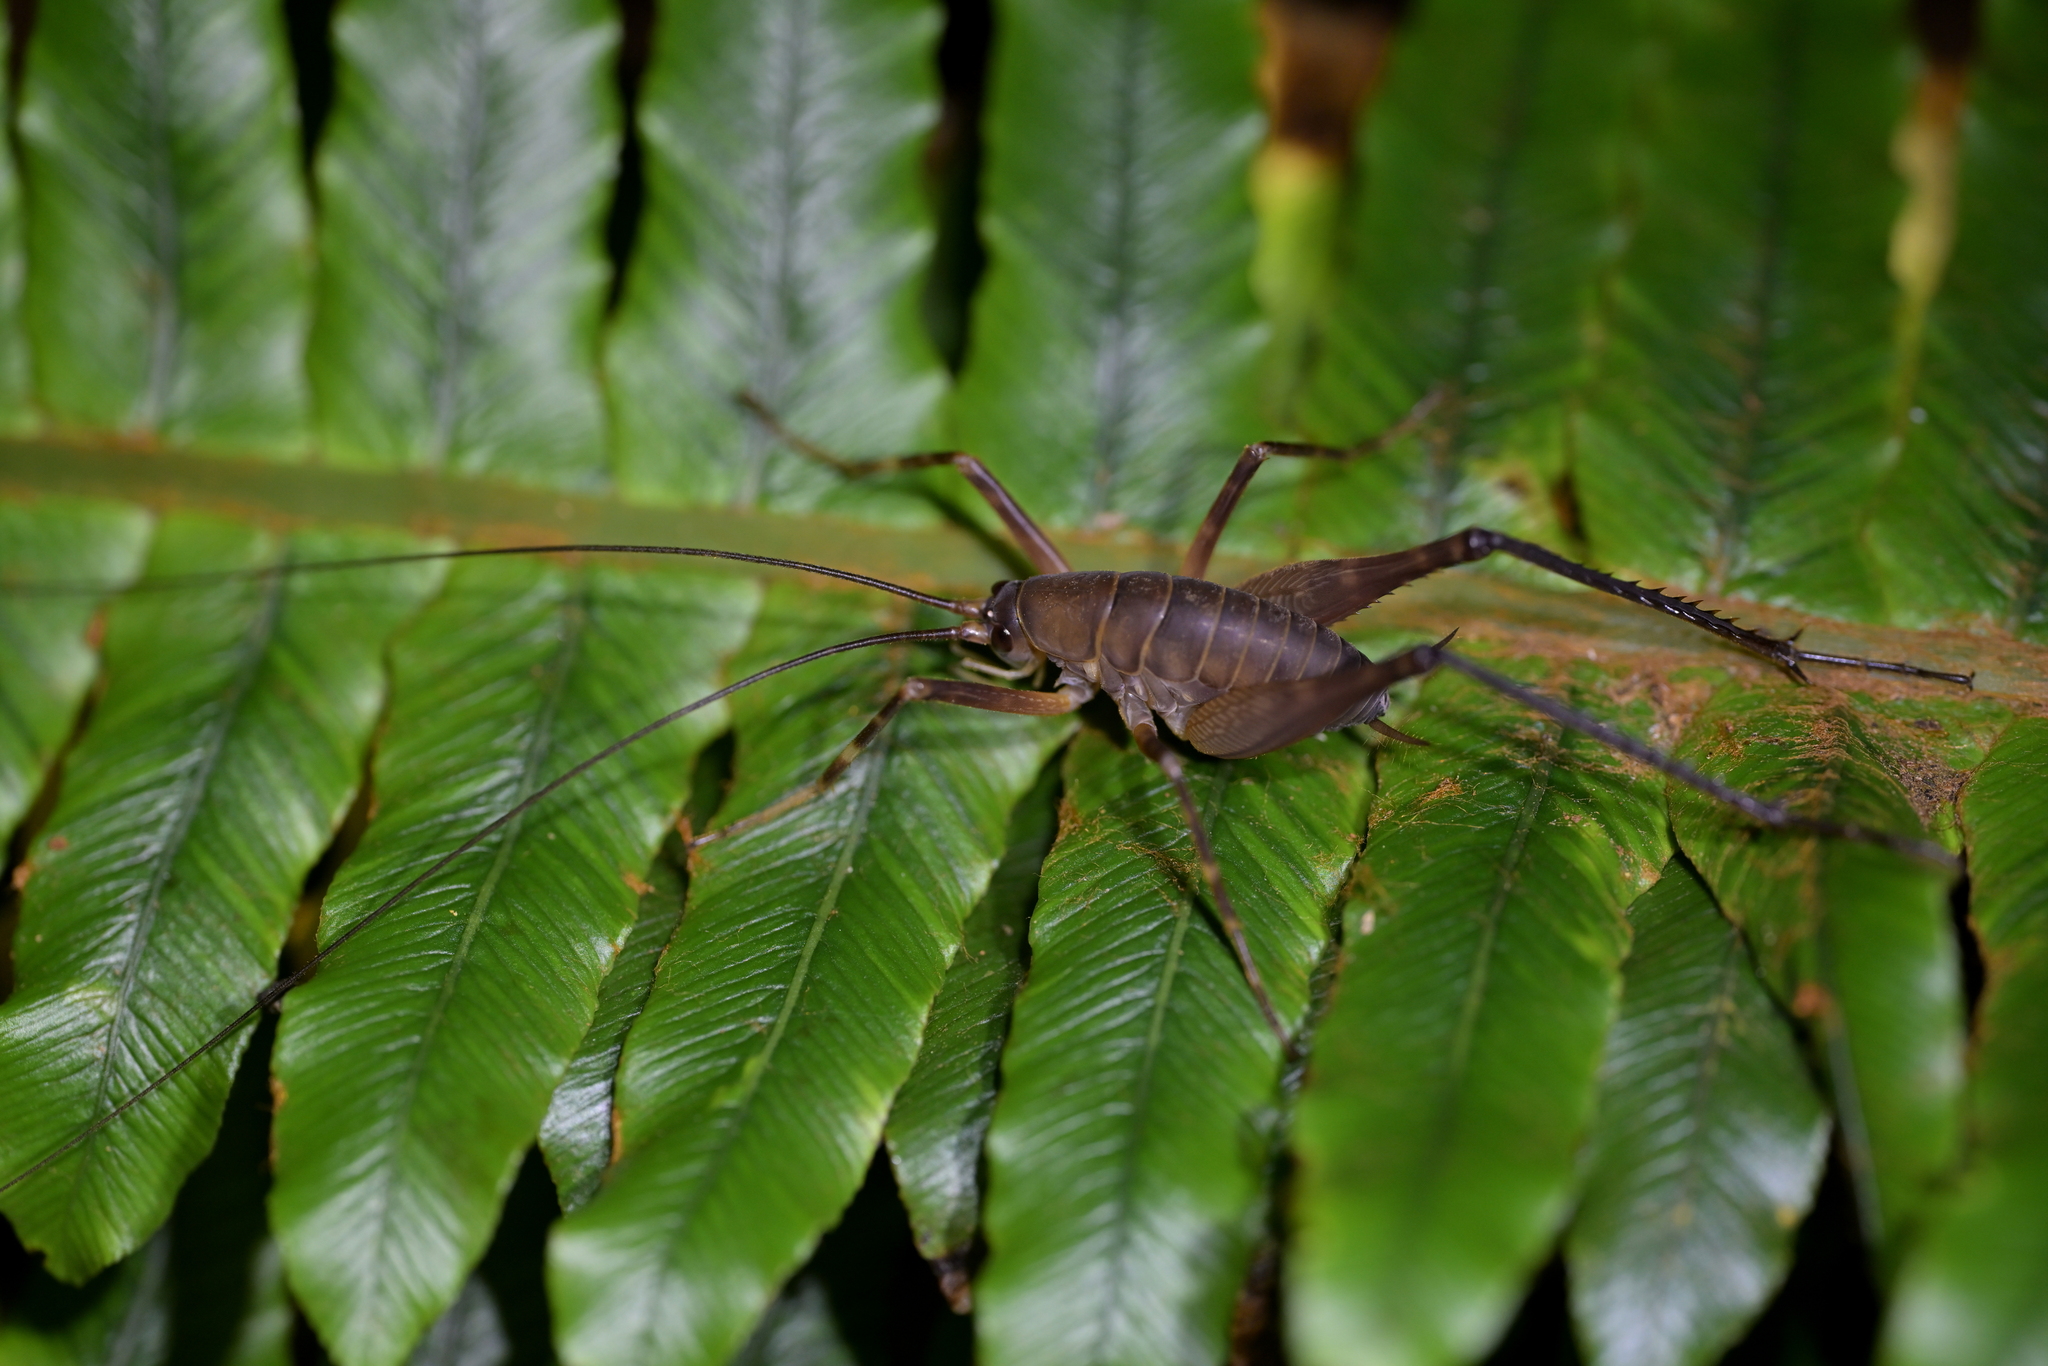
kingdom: Animalia
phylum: Arthropoda
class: Insecta
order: Orthoptera
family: Rhaphidophoridae
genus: Pachyrhamma
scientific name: Pachyrhamma longipes
